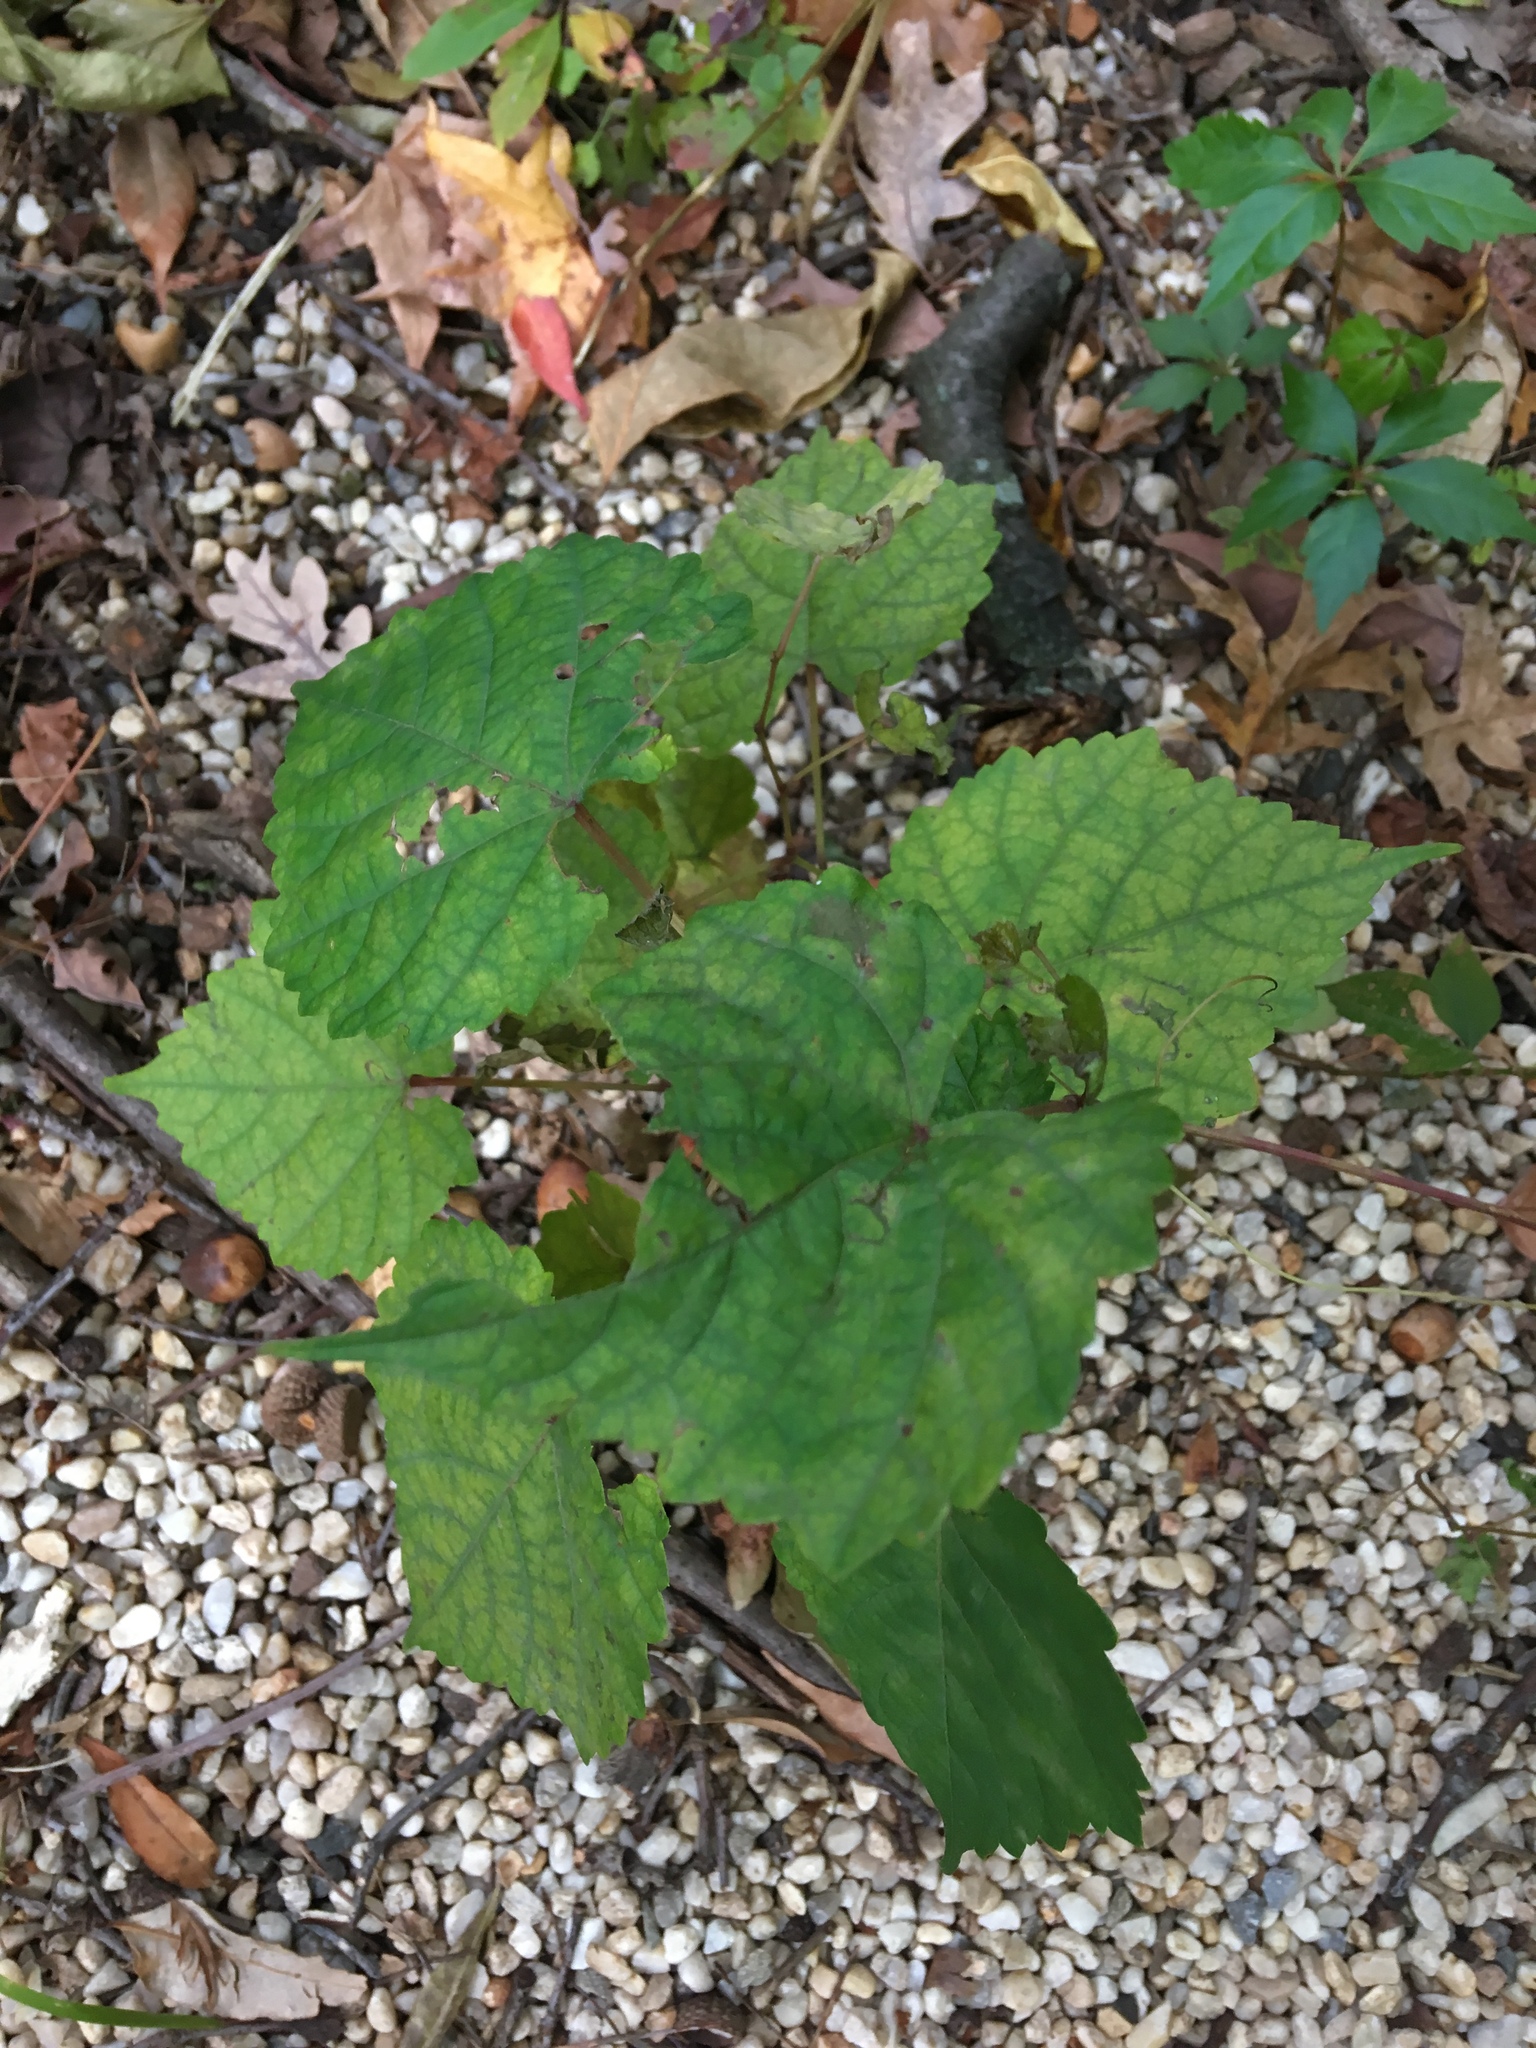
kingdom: Plantae
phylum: Tracheophyta
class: Magnoliopsida
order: Vitales
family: Vitaceae
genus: Ampelopsis
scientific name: Ampelopsis glandulosa
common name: Amur peppervine
